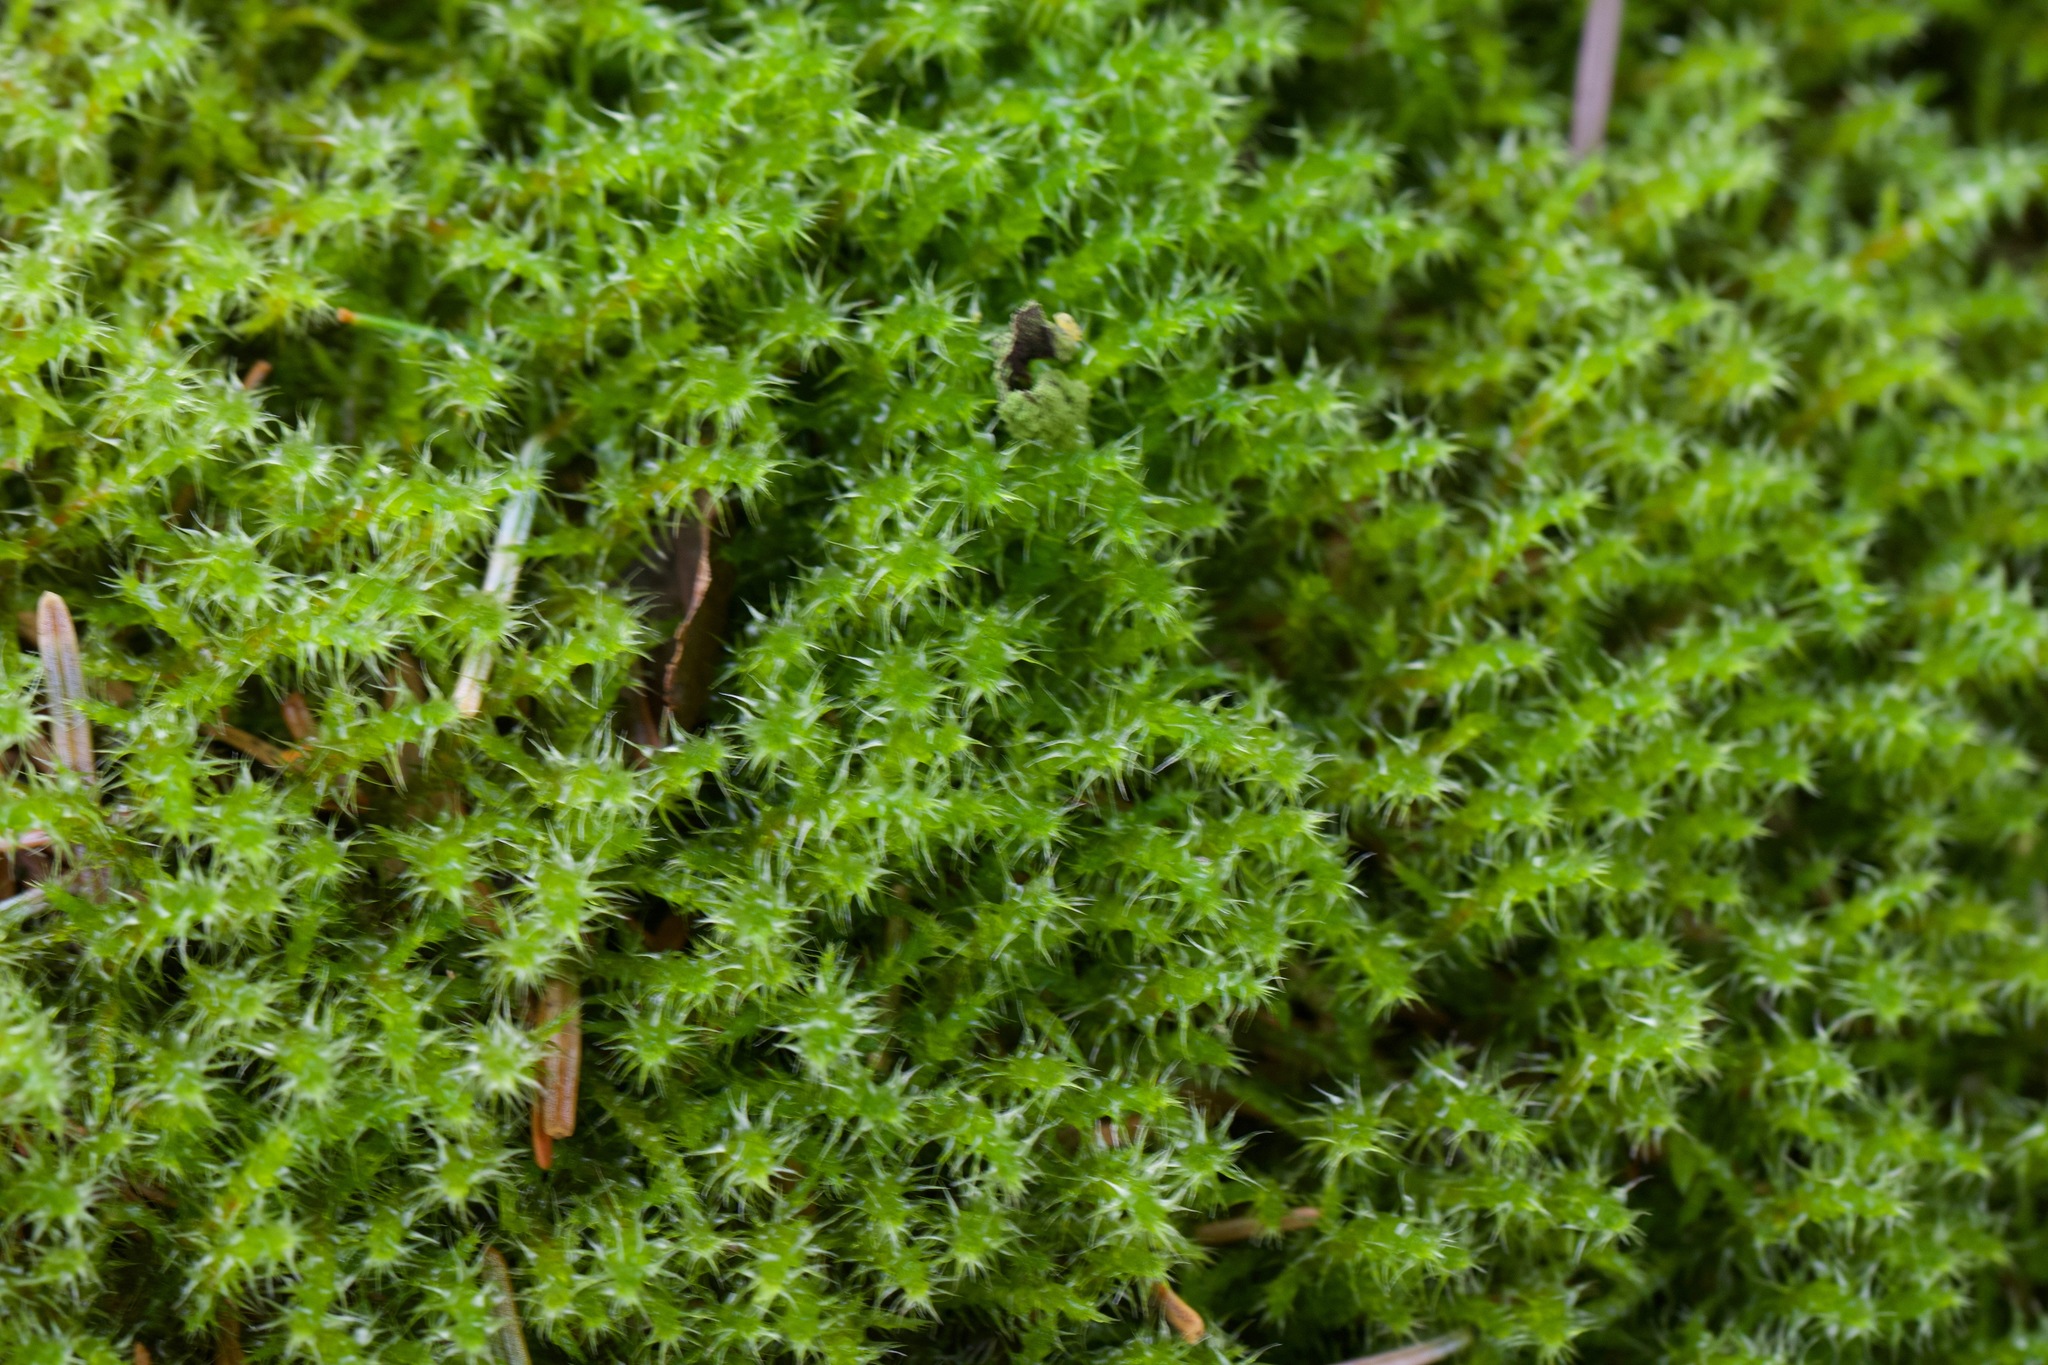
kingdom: Plantae
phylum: Bryophyta
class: Bryopsida
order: Hypnales
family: Hylocomiaceae
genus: Rhytidiadelphus
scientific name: Rhytidiadelphus squarrosus
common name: Springy turf-moss
